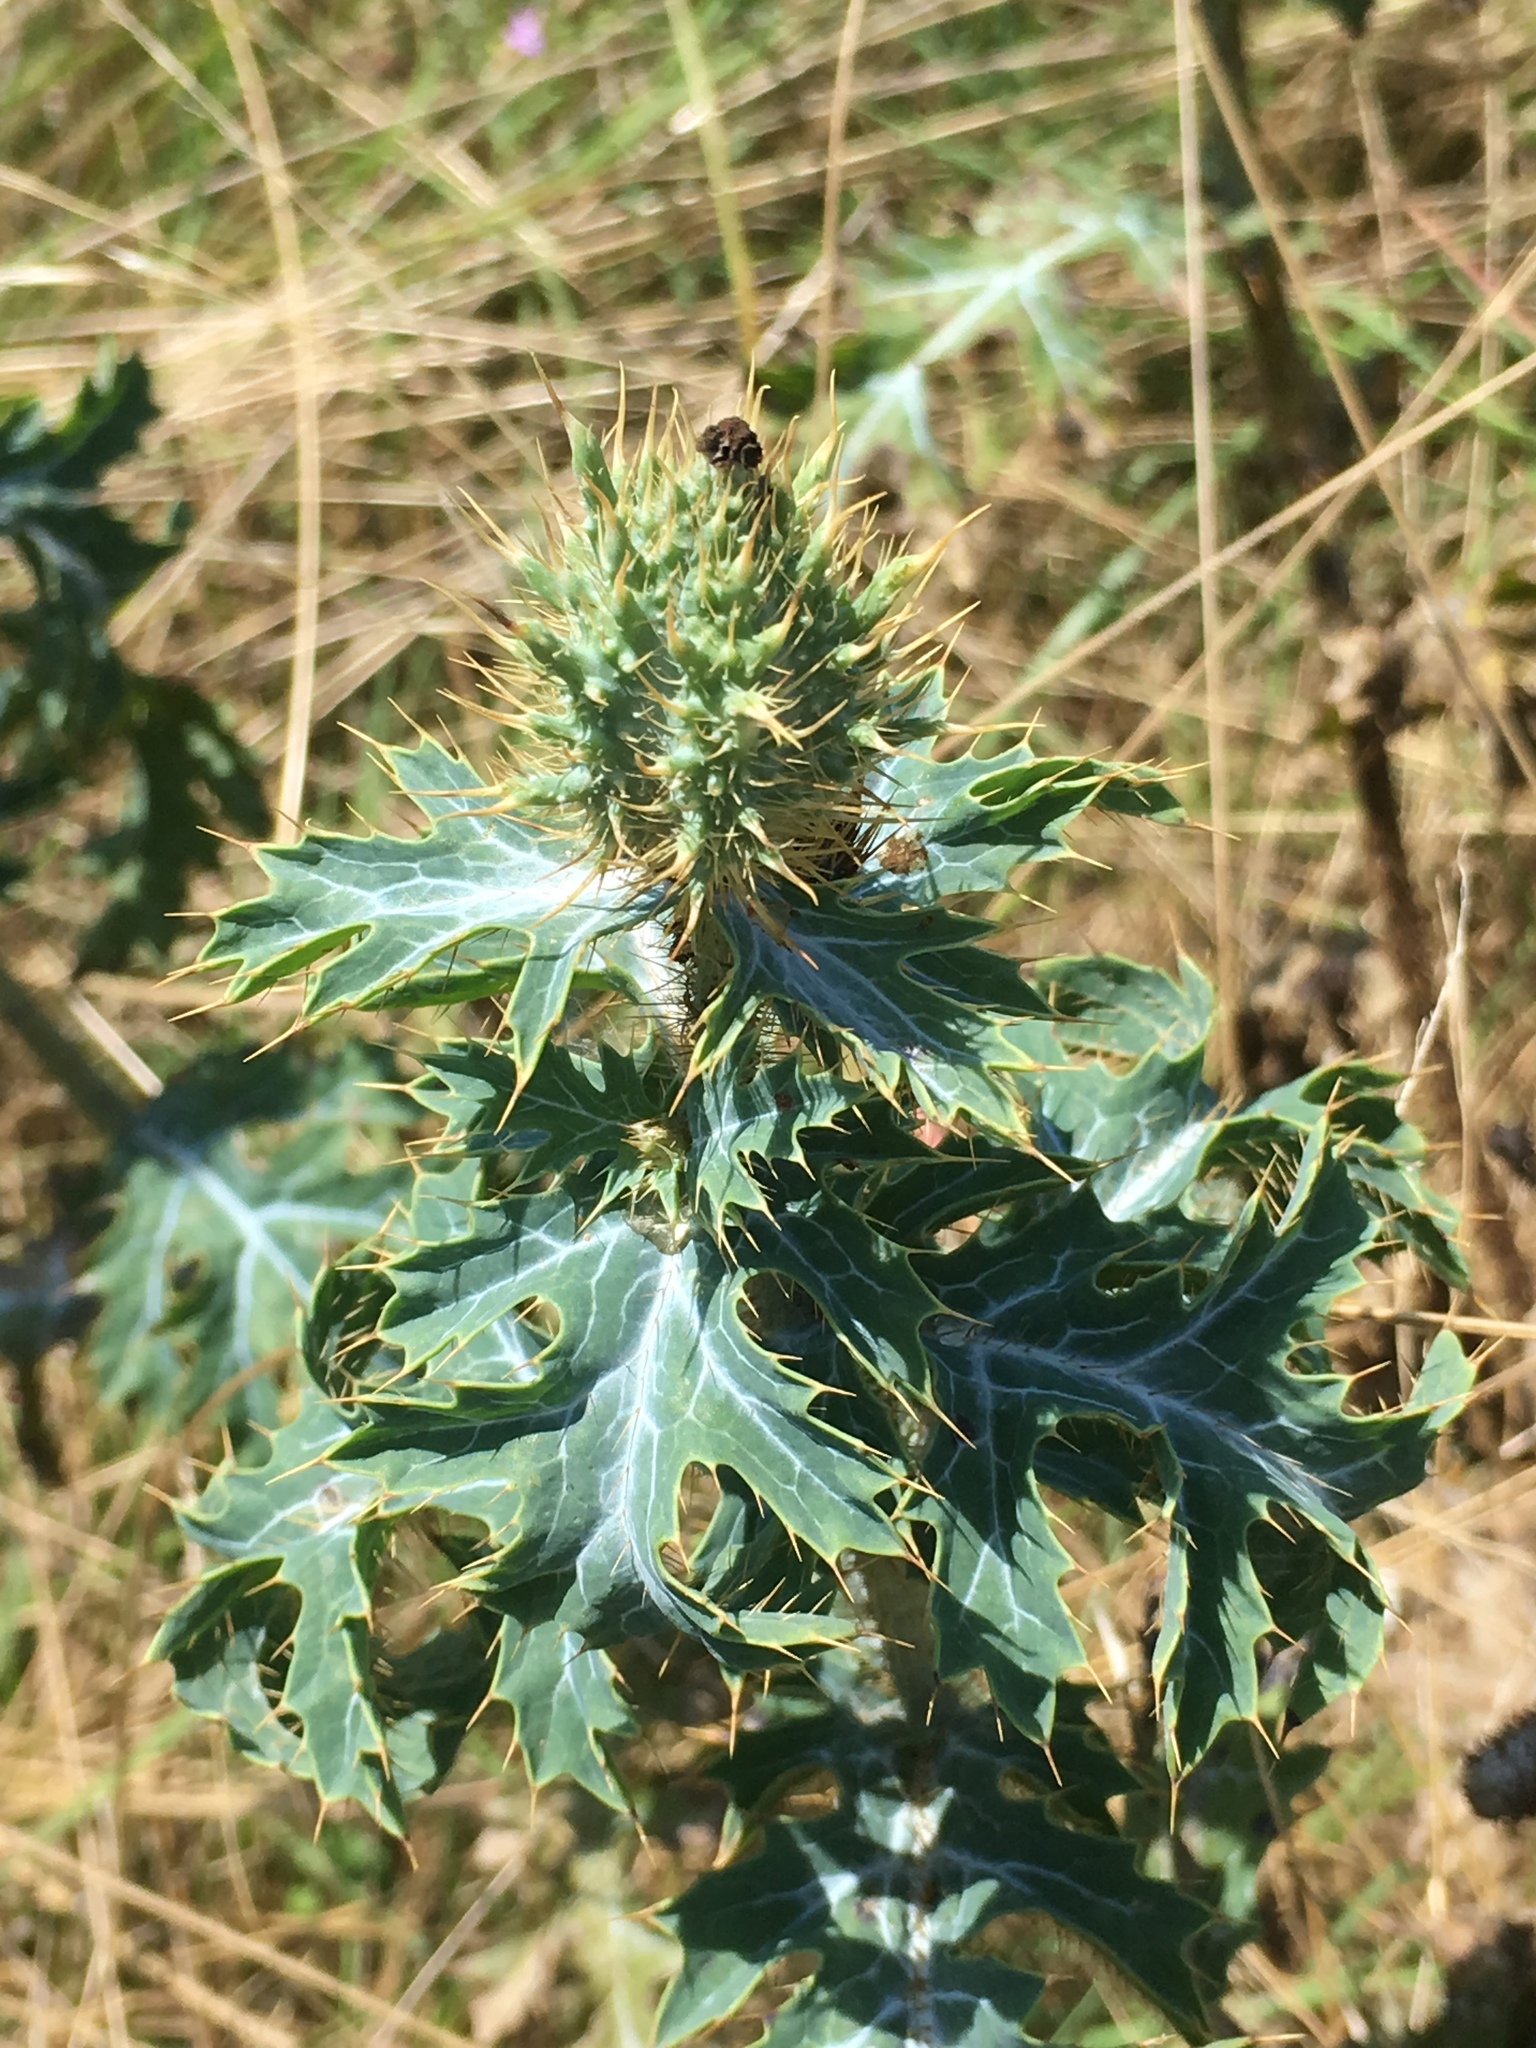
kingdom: Plantae
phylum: Tracheophyta
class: Magnoliopsida
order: Ranunculales
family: Papaveraceae
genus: Argemone
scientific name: Argemone albiflora
